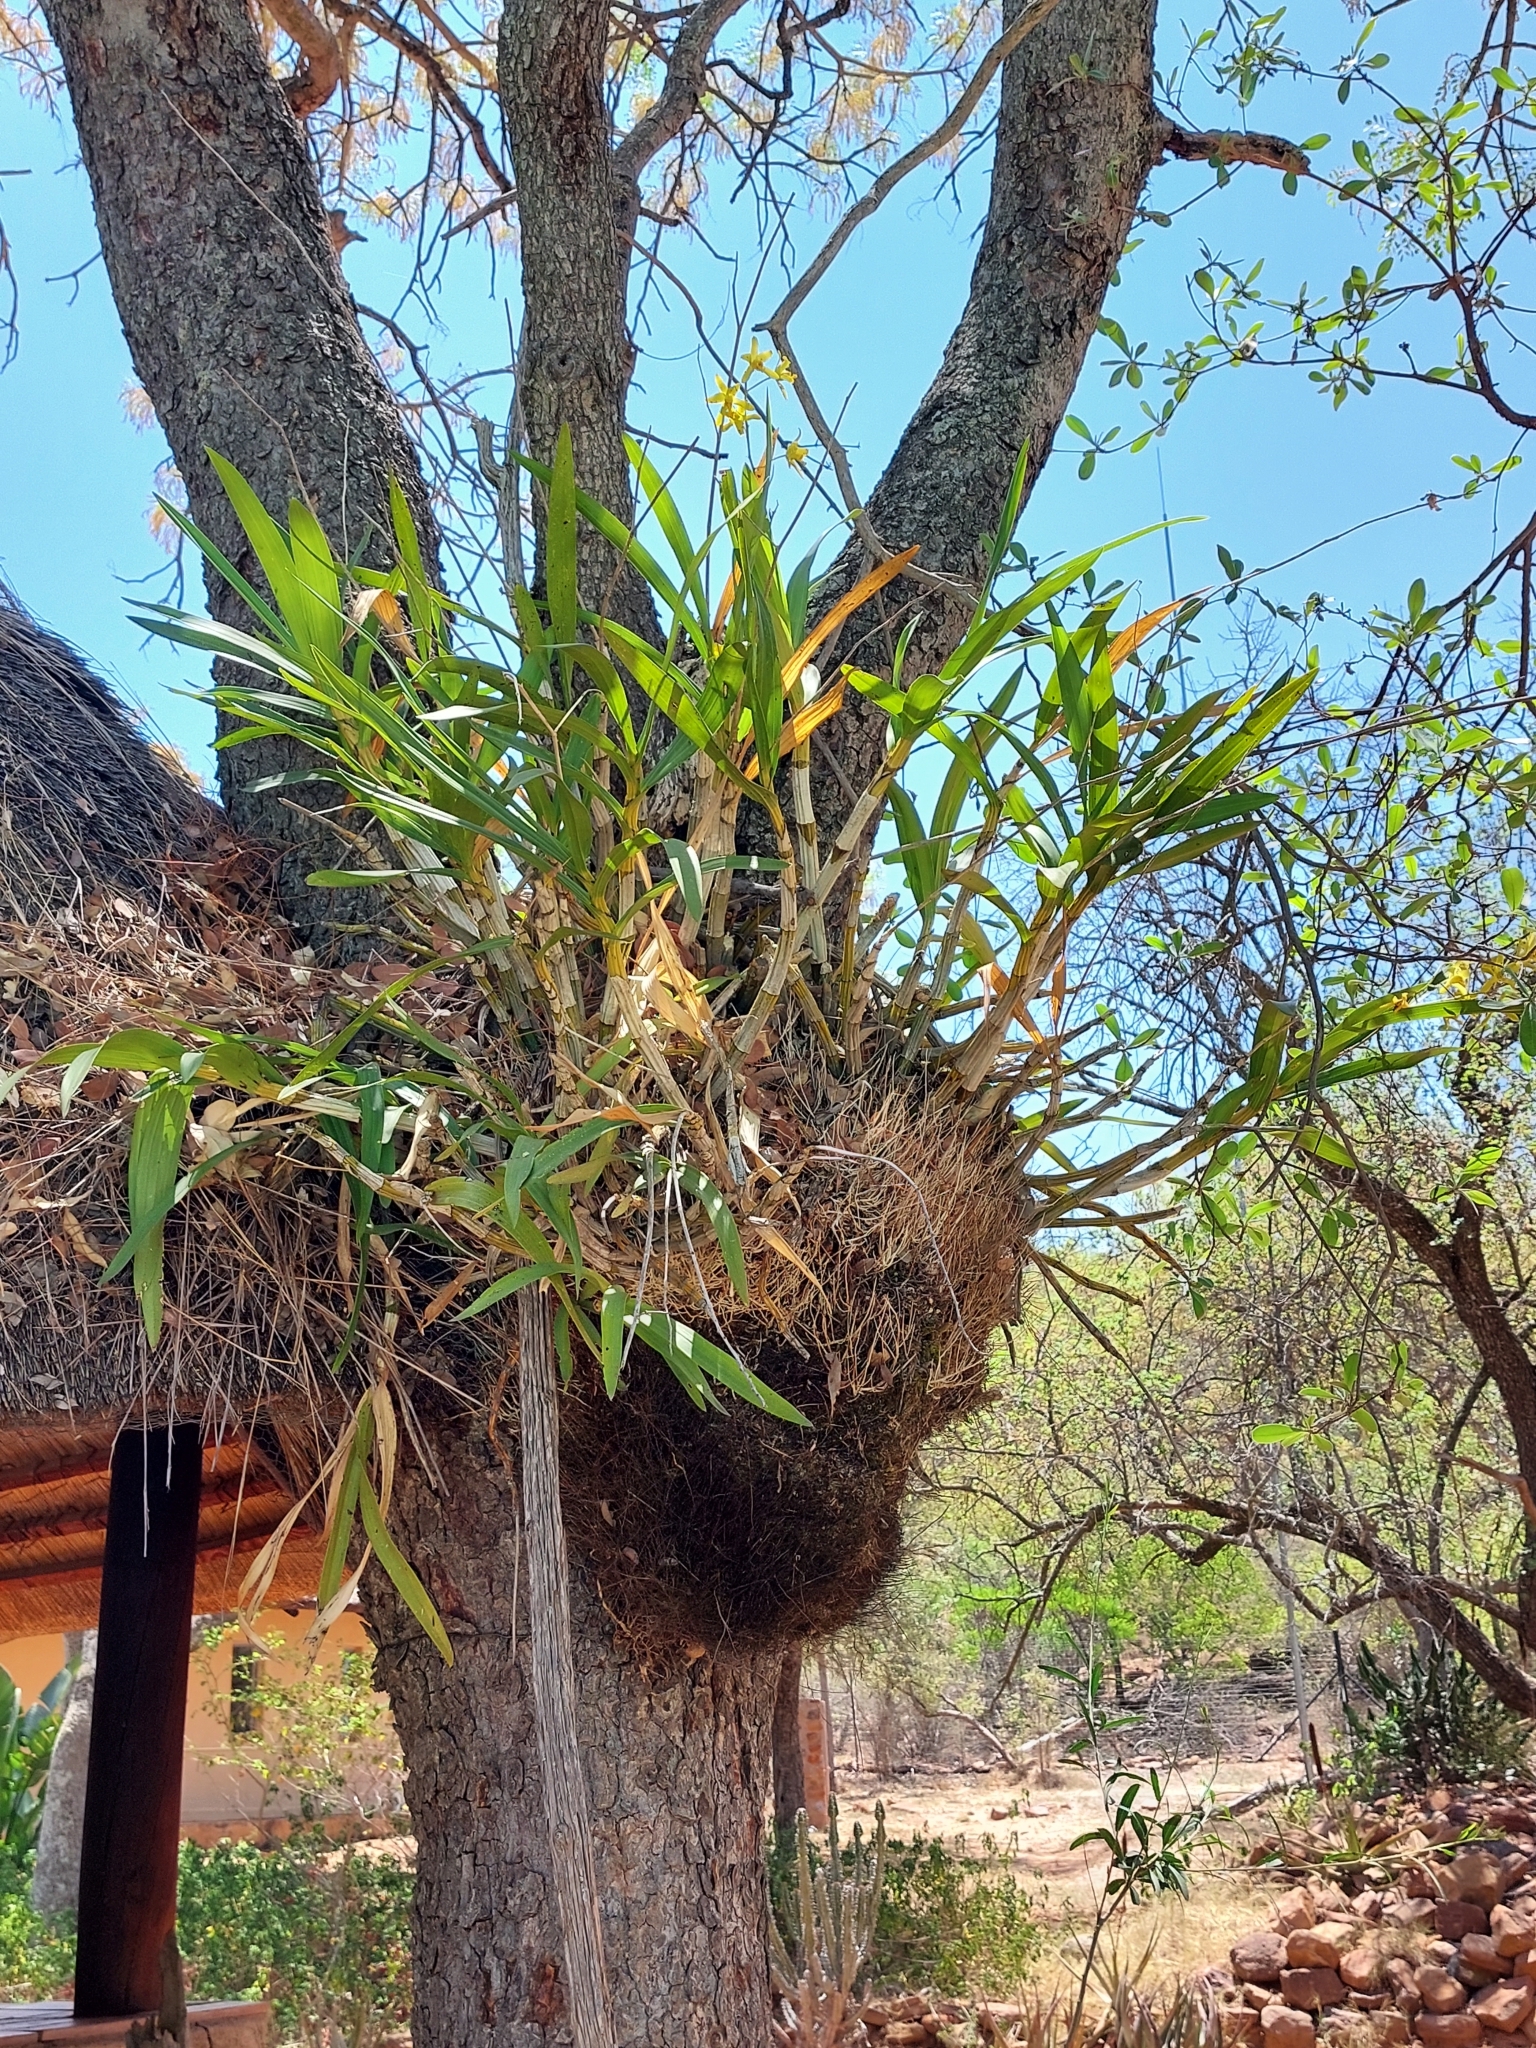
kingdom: Plantae
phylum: Tracheophyta
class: Liliopsida
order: Asparagales
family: Orchidaceae
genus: Ansellia
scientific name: Ansellia africana
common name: African ansellia
